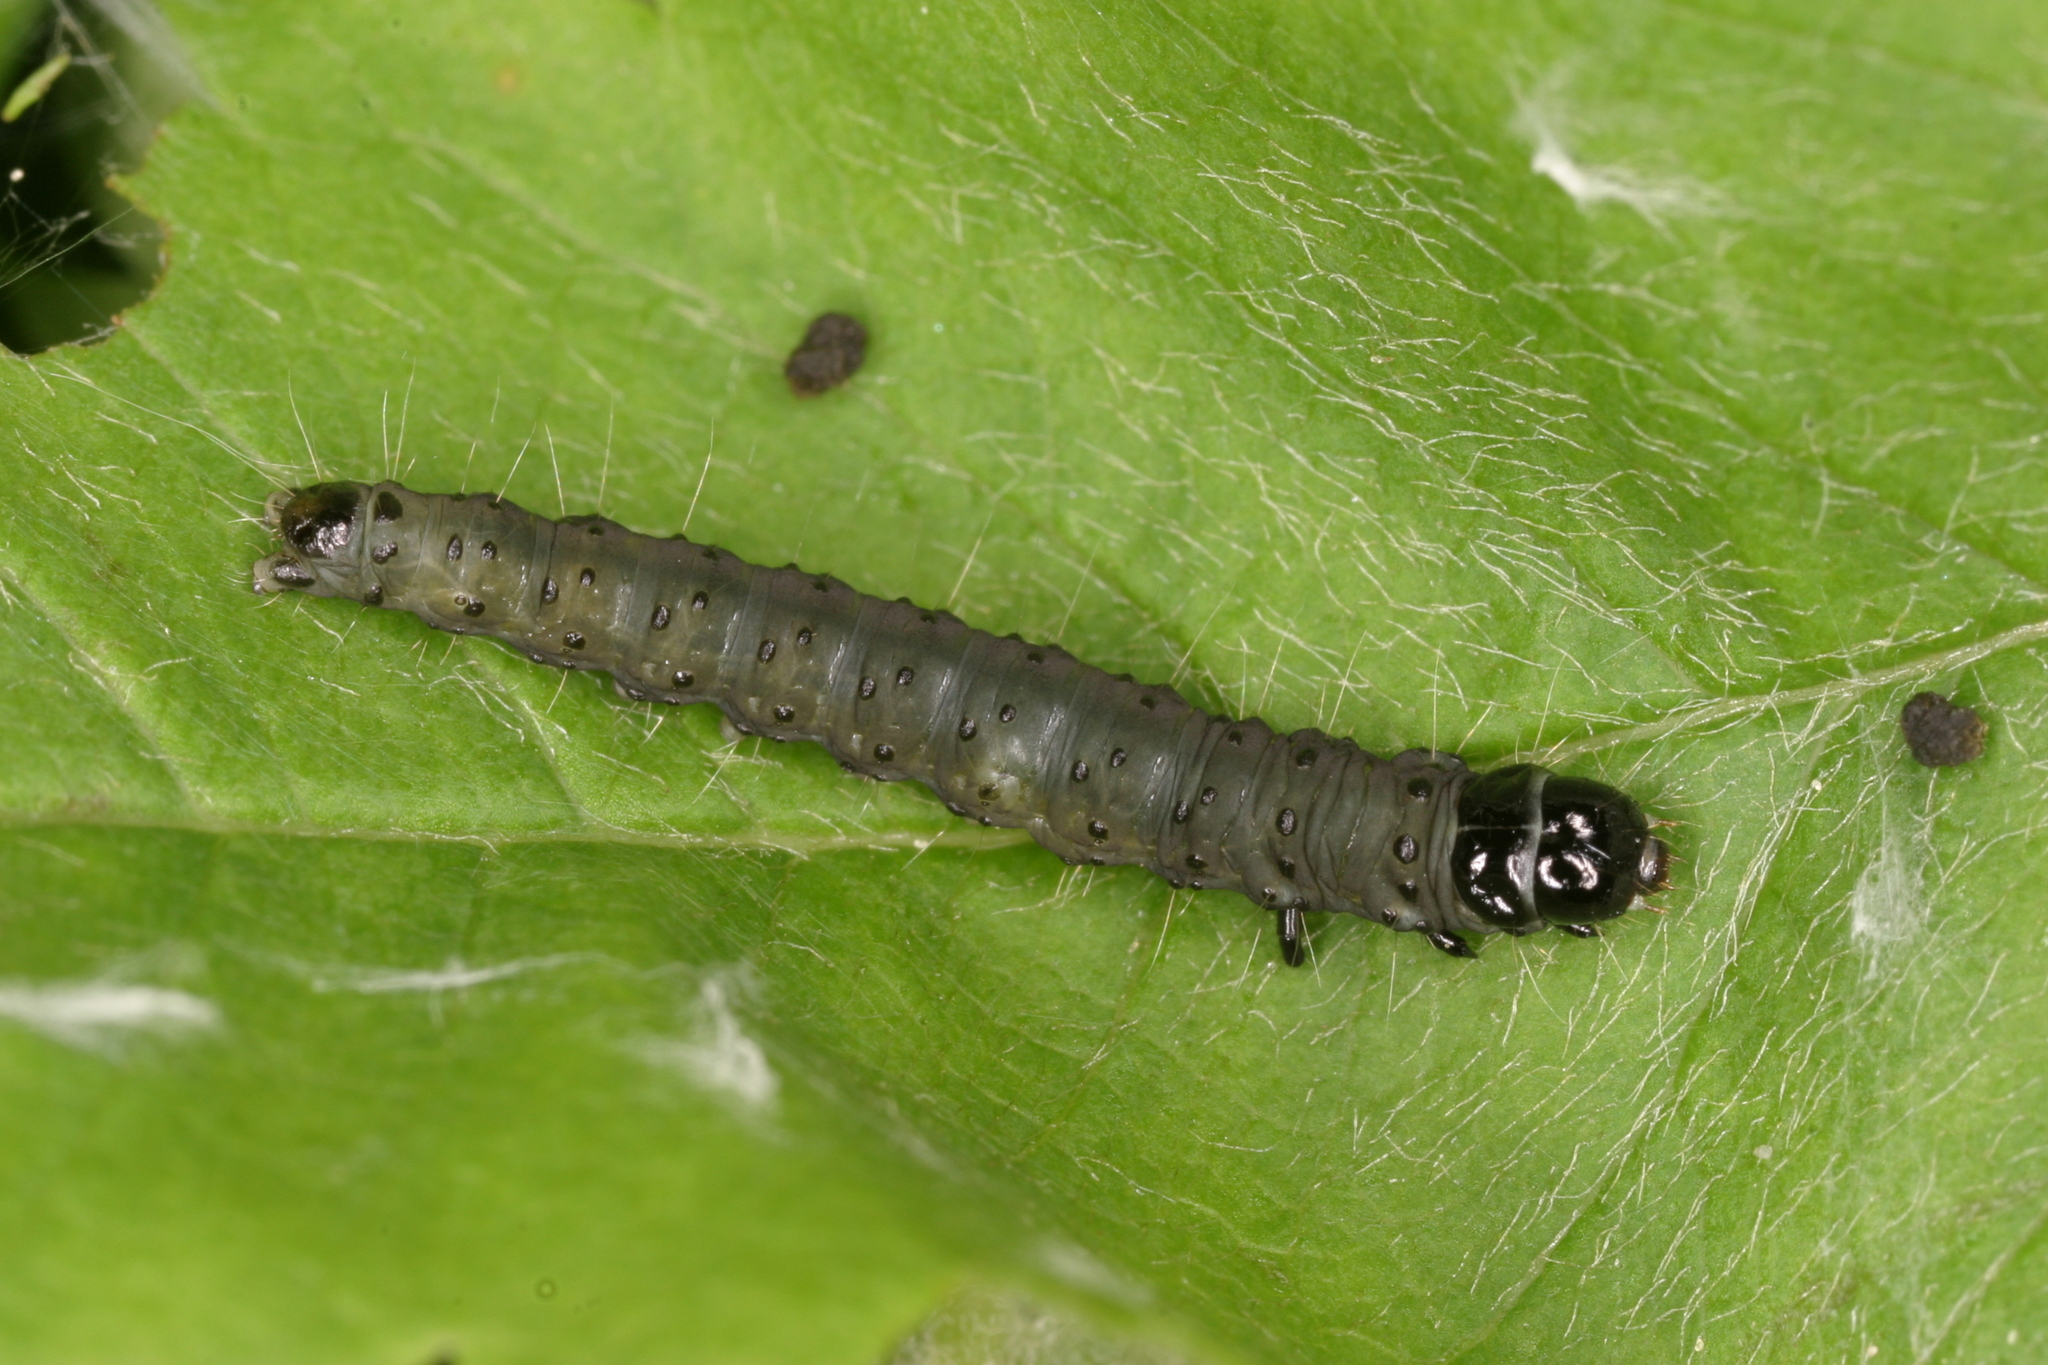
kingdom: Animalia
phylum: Arthropoda
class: Insecta
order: Lepidoptera
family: Tortricidae
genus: Hedya
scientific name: Hedya nubiferana
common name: Marbled orchard tortrix
